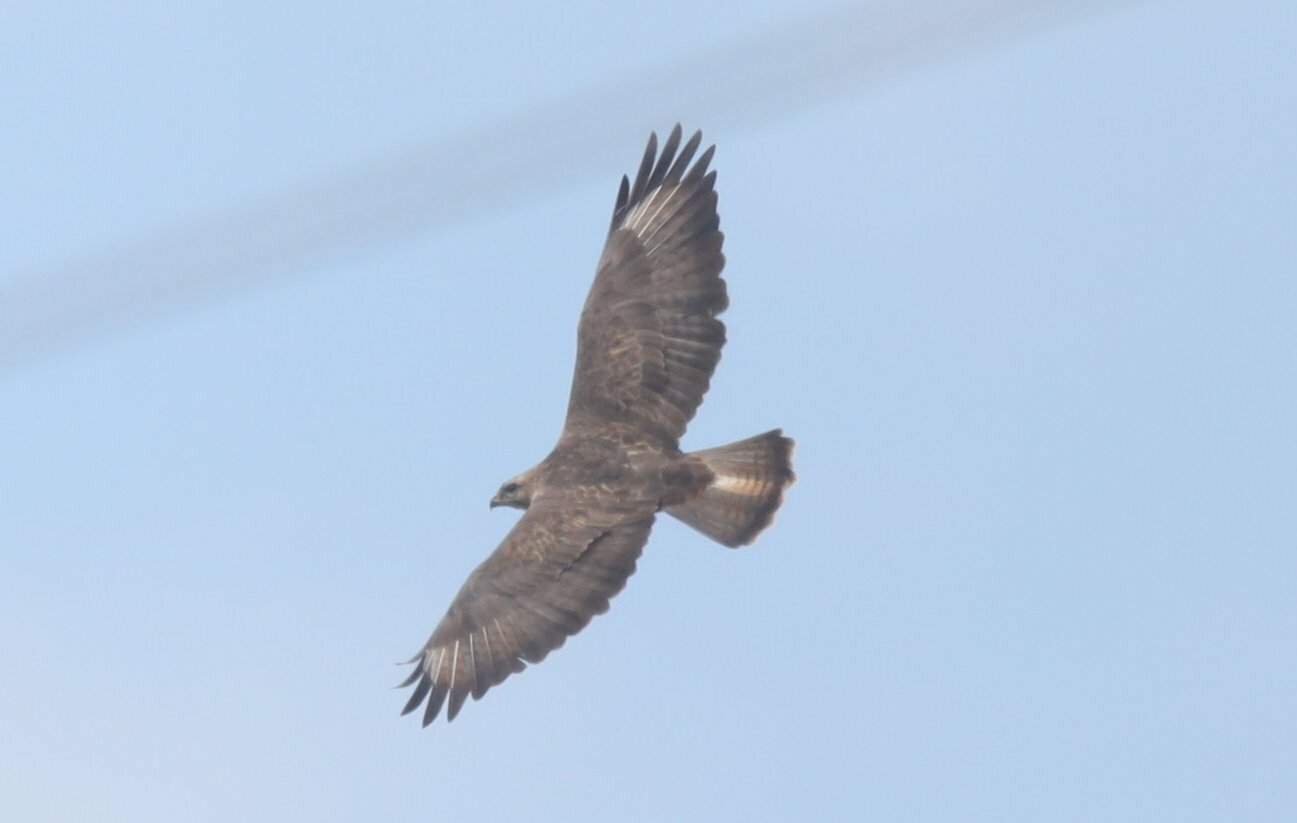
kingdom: Animalia
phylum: Chordata
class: Aves
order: Accipitriformes
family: Accipitridae
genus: Buteo
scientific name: Buteo buteo
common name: Common buzzard
